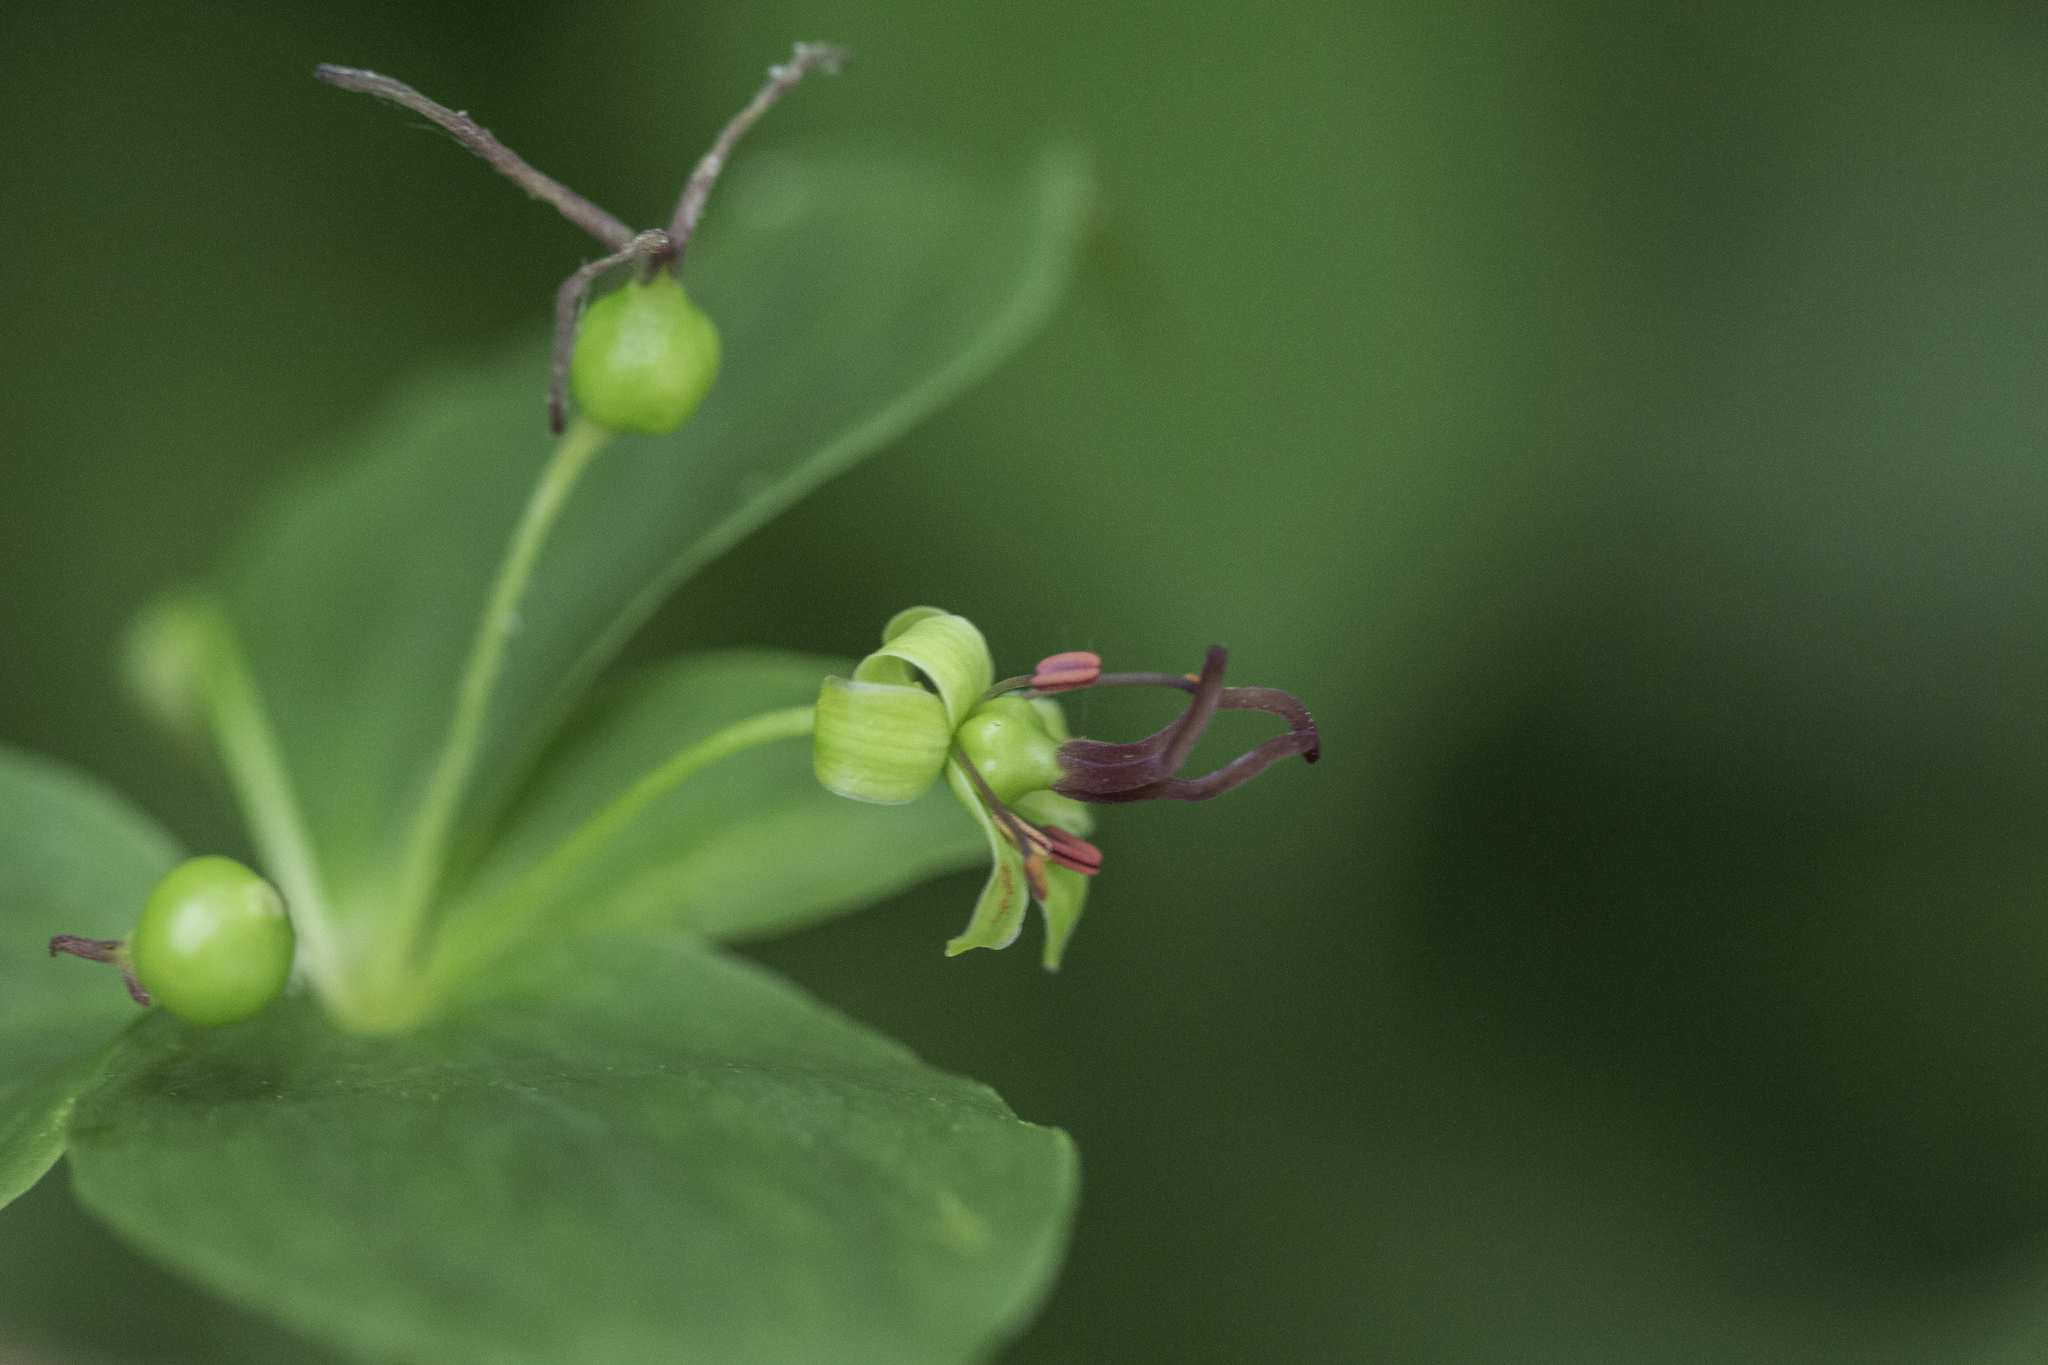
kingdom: Plantae
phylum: Tracheophyta
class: Liliopsida
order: Liliales
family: Liliaceae
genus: Medeola
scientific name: Medeola virginiana
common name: Indian cucumber-root
